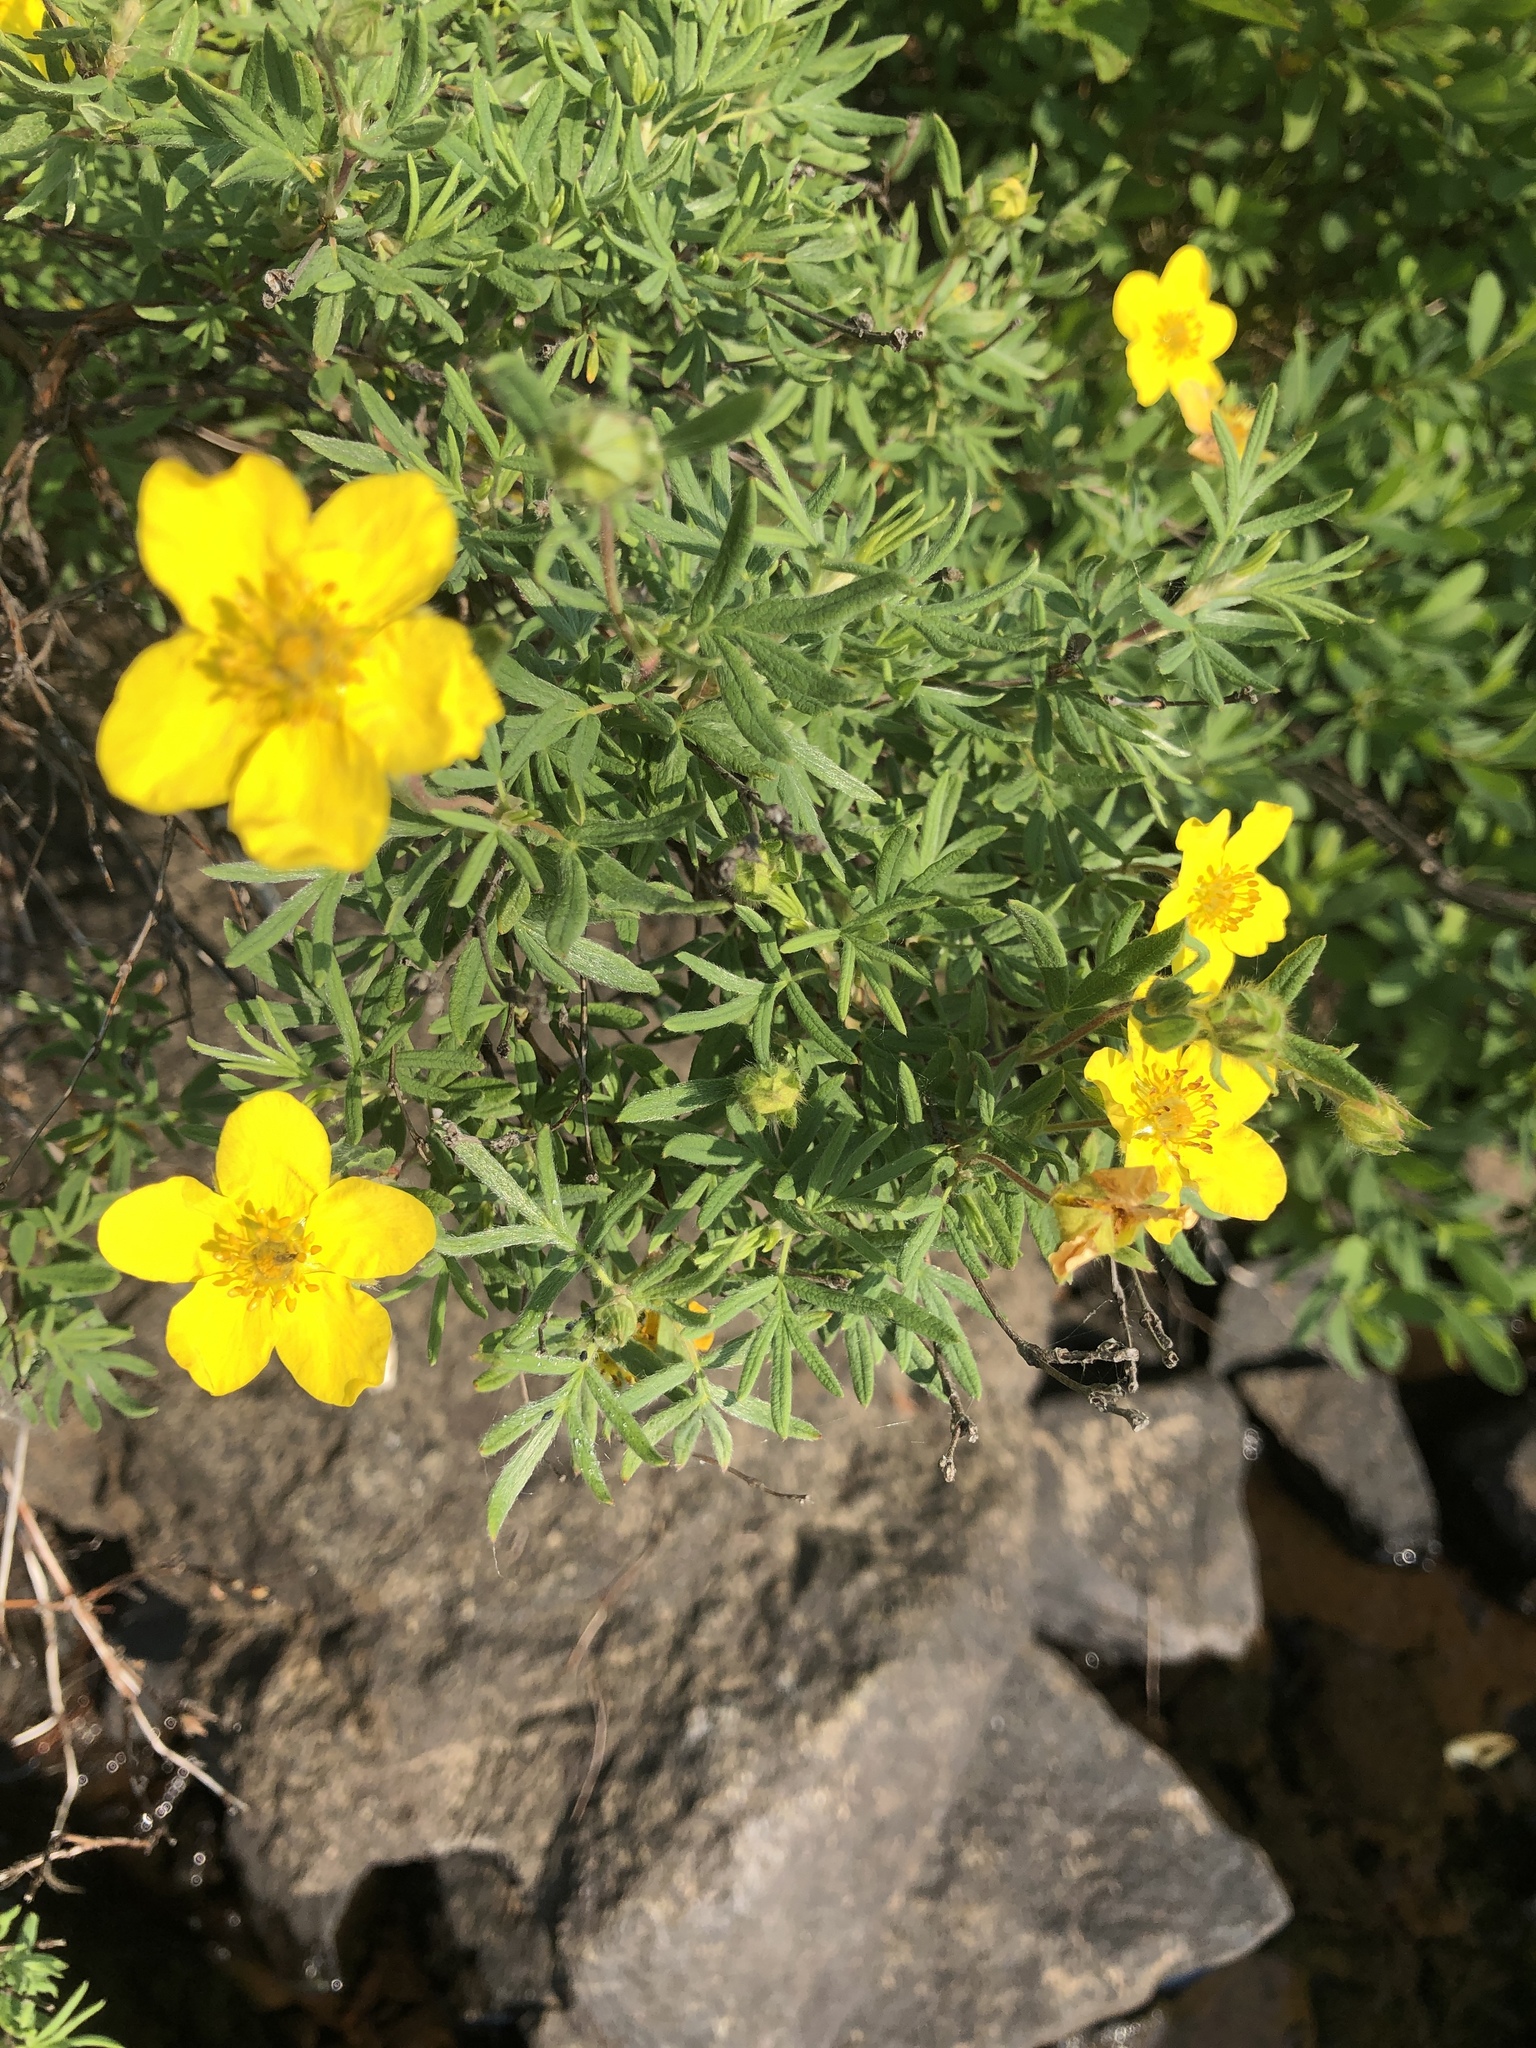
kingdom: Plantae
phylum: Tracheophyta
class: Magnoliopsida
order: Rosales
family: Rosaceae
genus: Dasiphora
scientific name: Dasiphora fruticosa
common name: Shrubby cinquefoil
